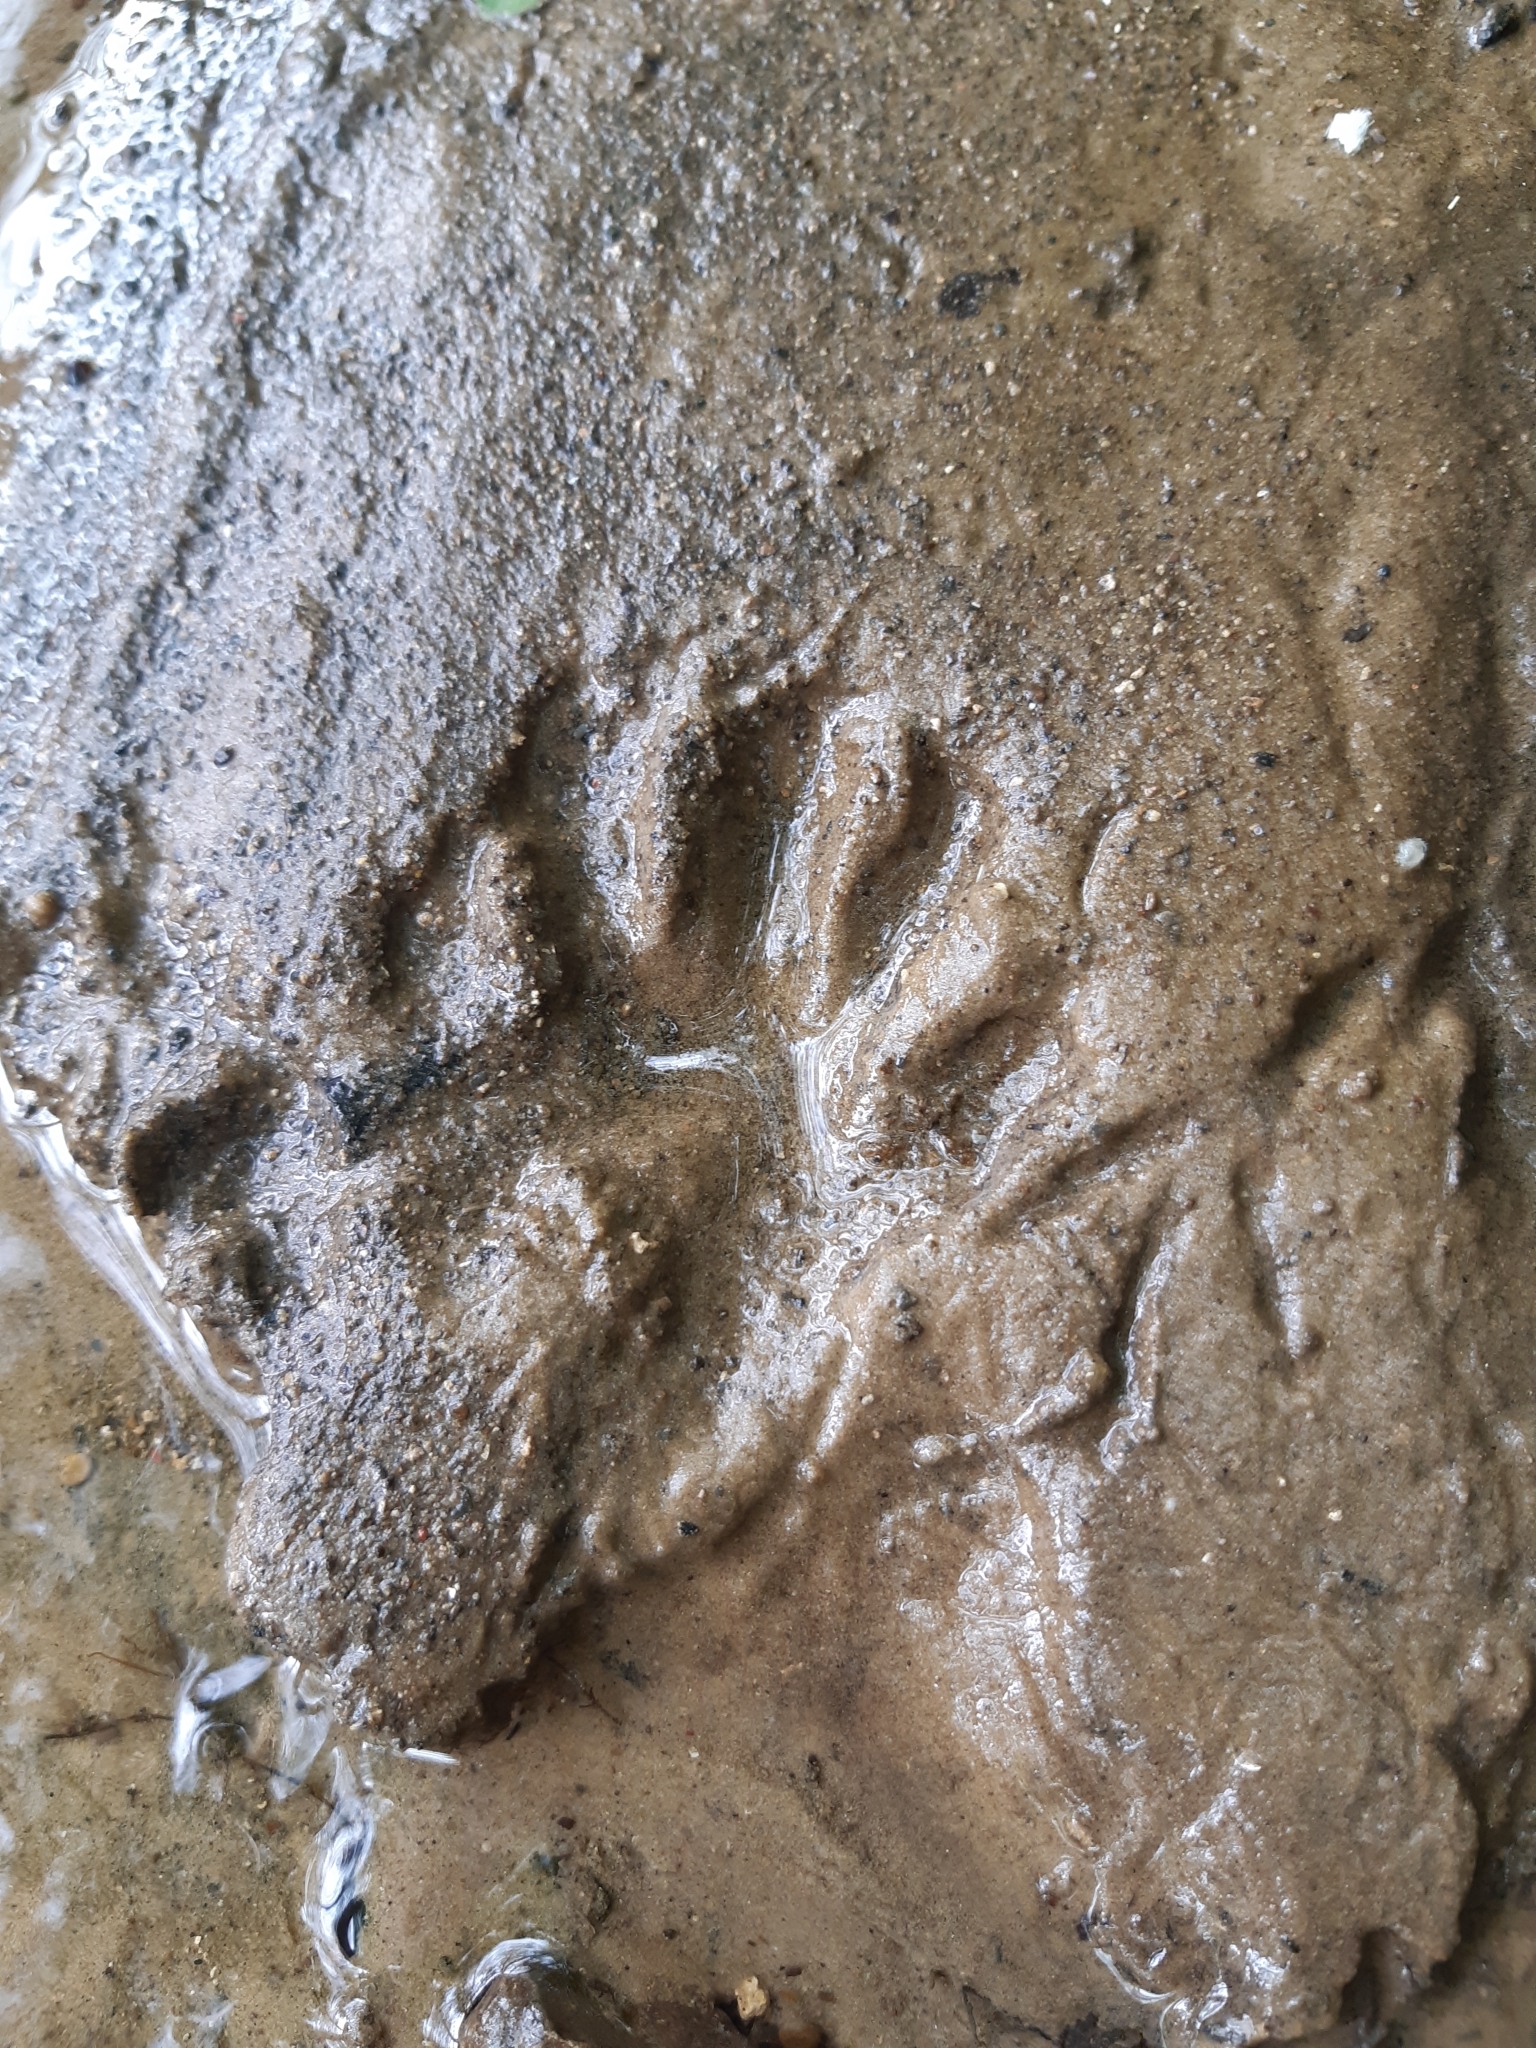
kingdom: Animalia
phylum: Chordata
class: Mammalia
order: Carnivora
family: Procyonidae
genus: Procyon
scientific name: Procyon lotor
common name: Raccoon
